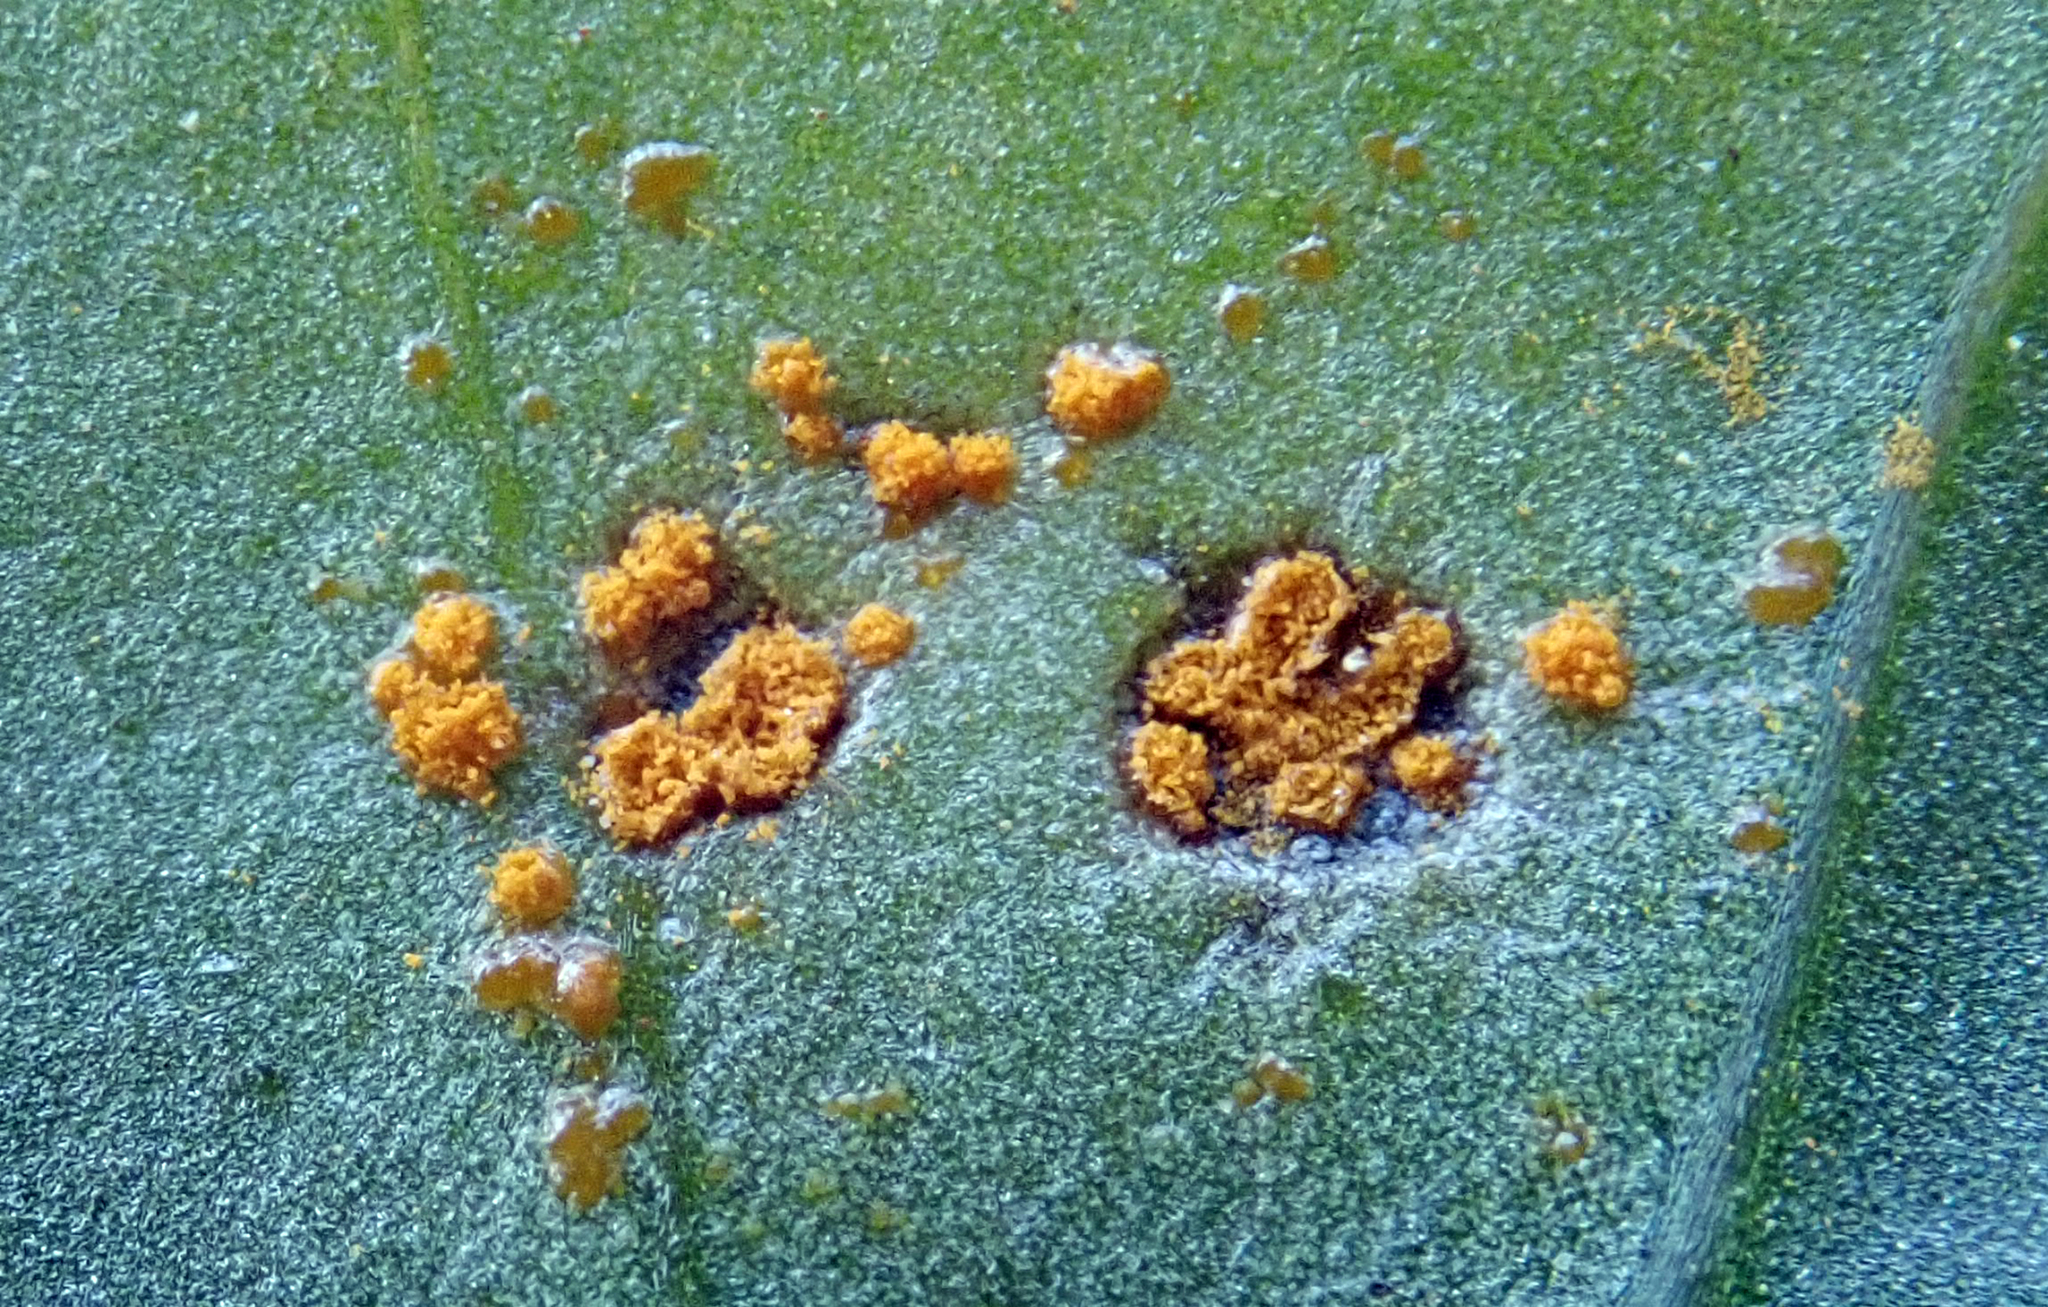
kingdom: Fungi
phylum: Basidiomycota
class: Pucciniomycetes
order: Pucciniales
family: Coleosporiaceae
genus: Coleosporium
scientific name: Coleosporium tussilaginis
